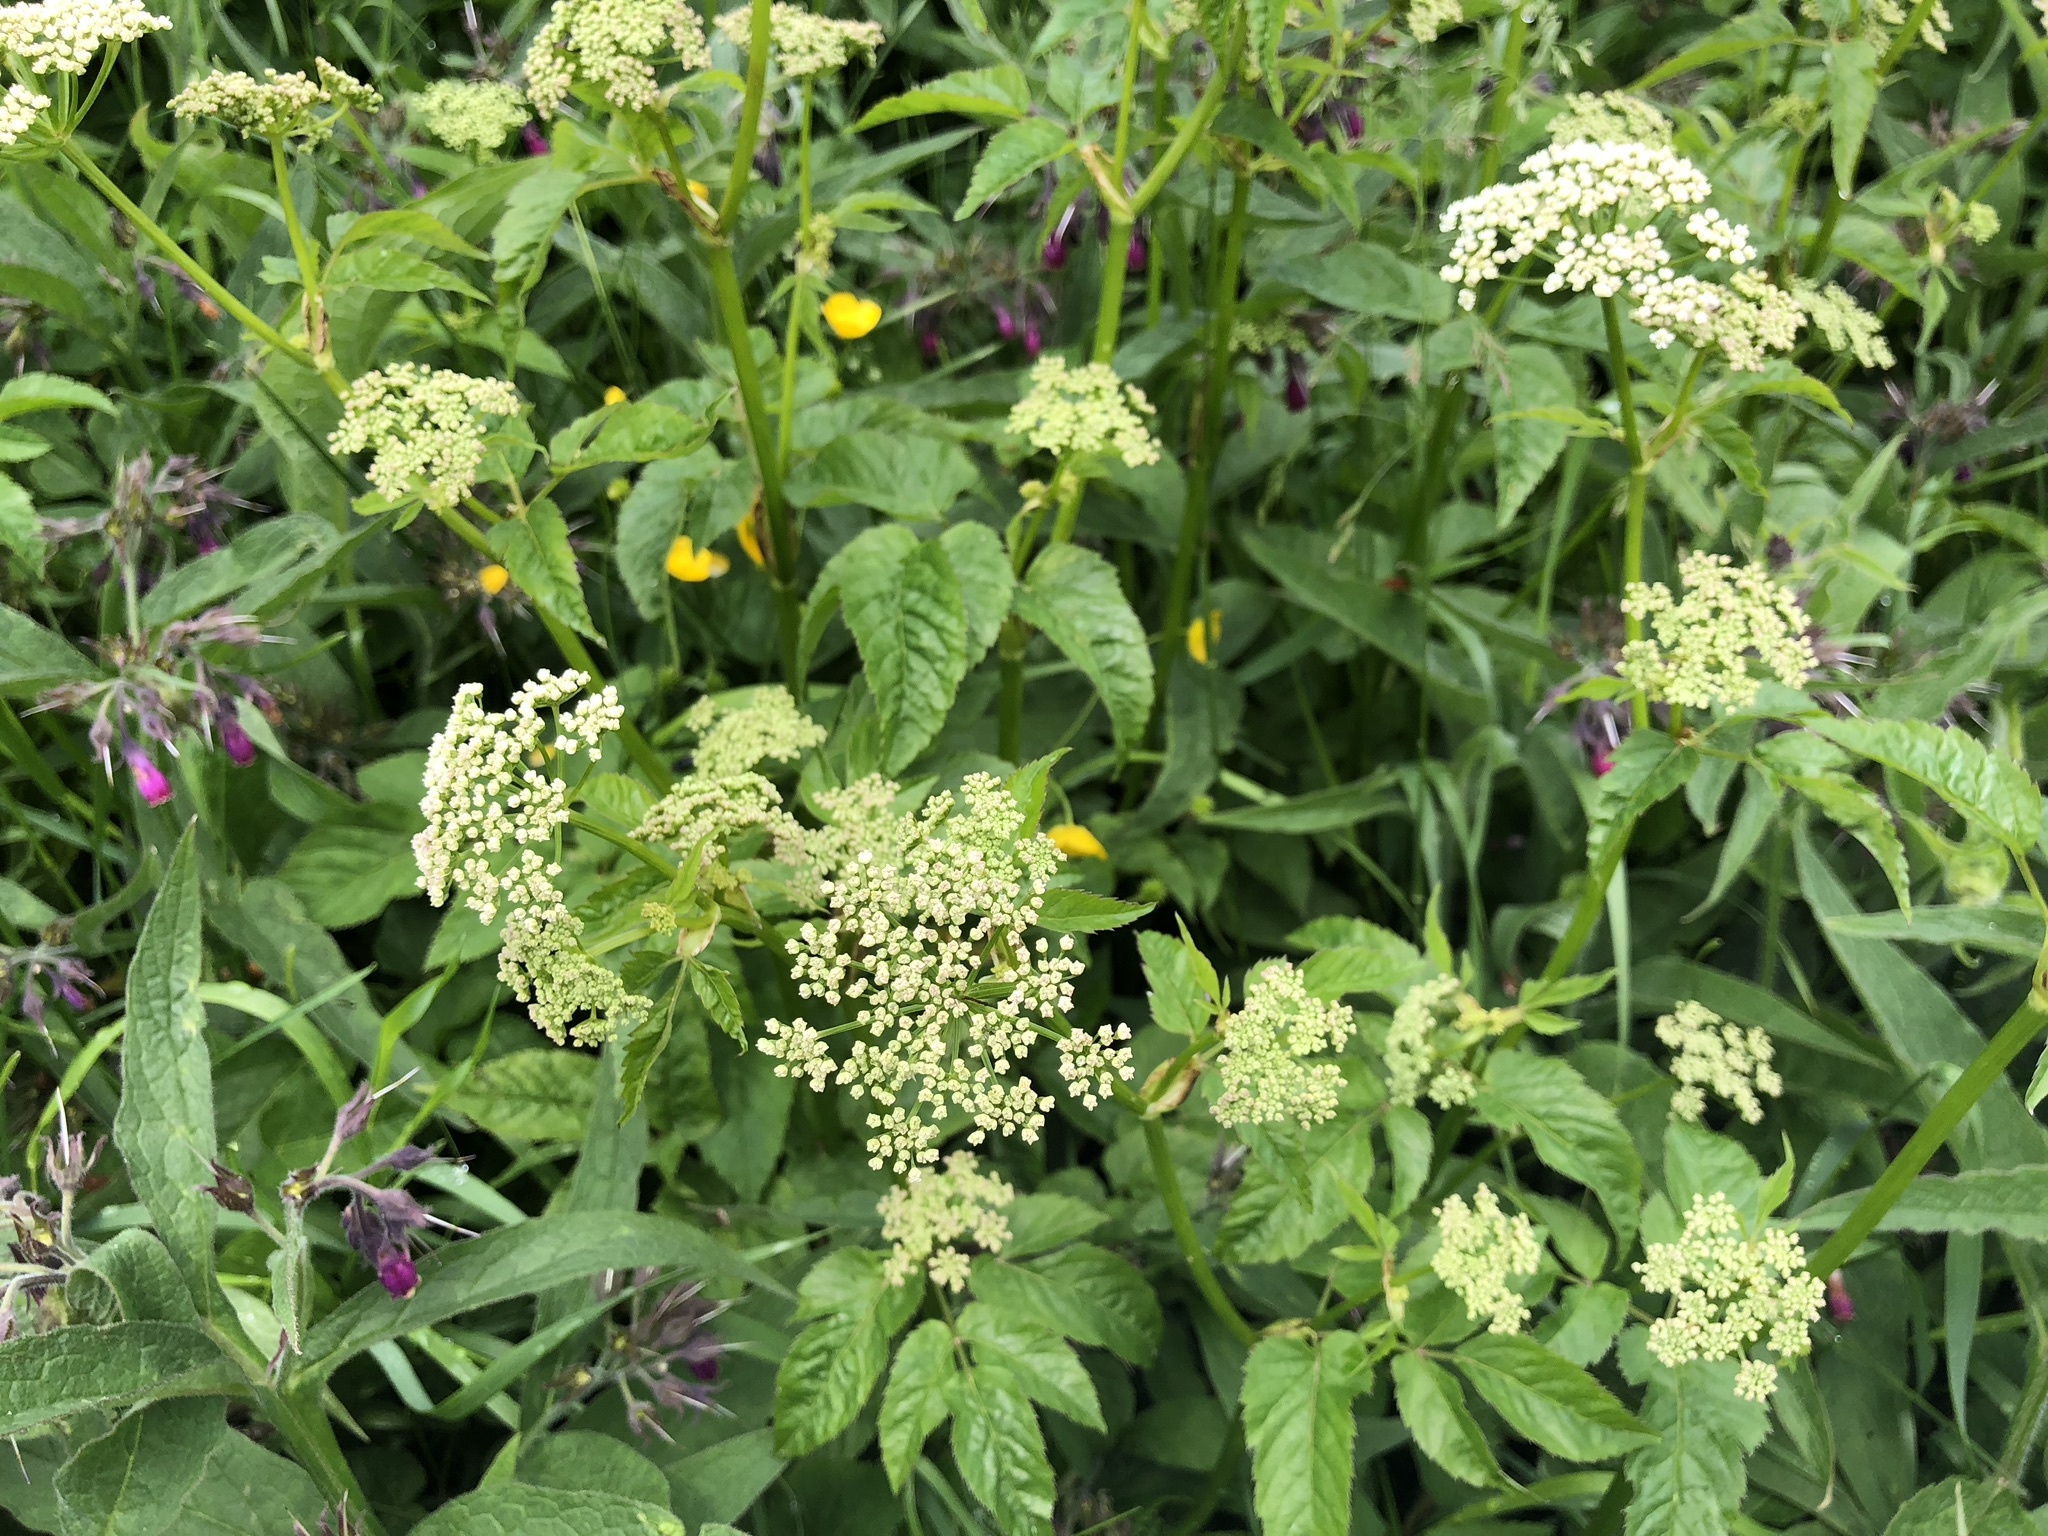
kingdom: Plantae
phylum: Tracheophyta
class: Magnoliopsida
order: Apiales
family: Apiaceae
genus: Aegopodium
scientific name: Aegopodium podagraria
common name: Ground-elder
